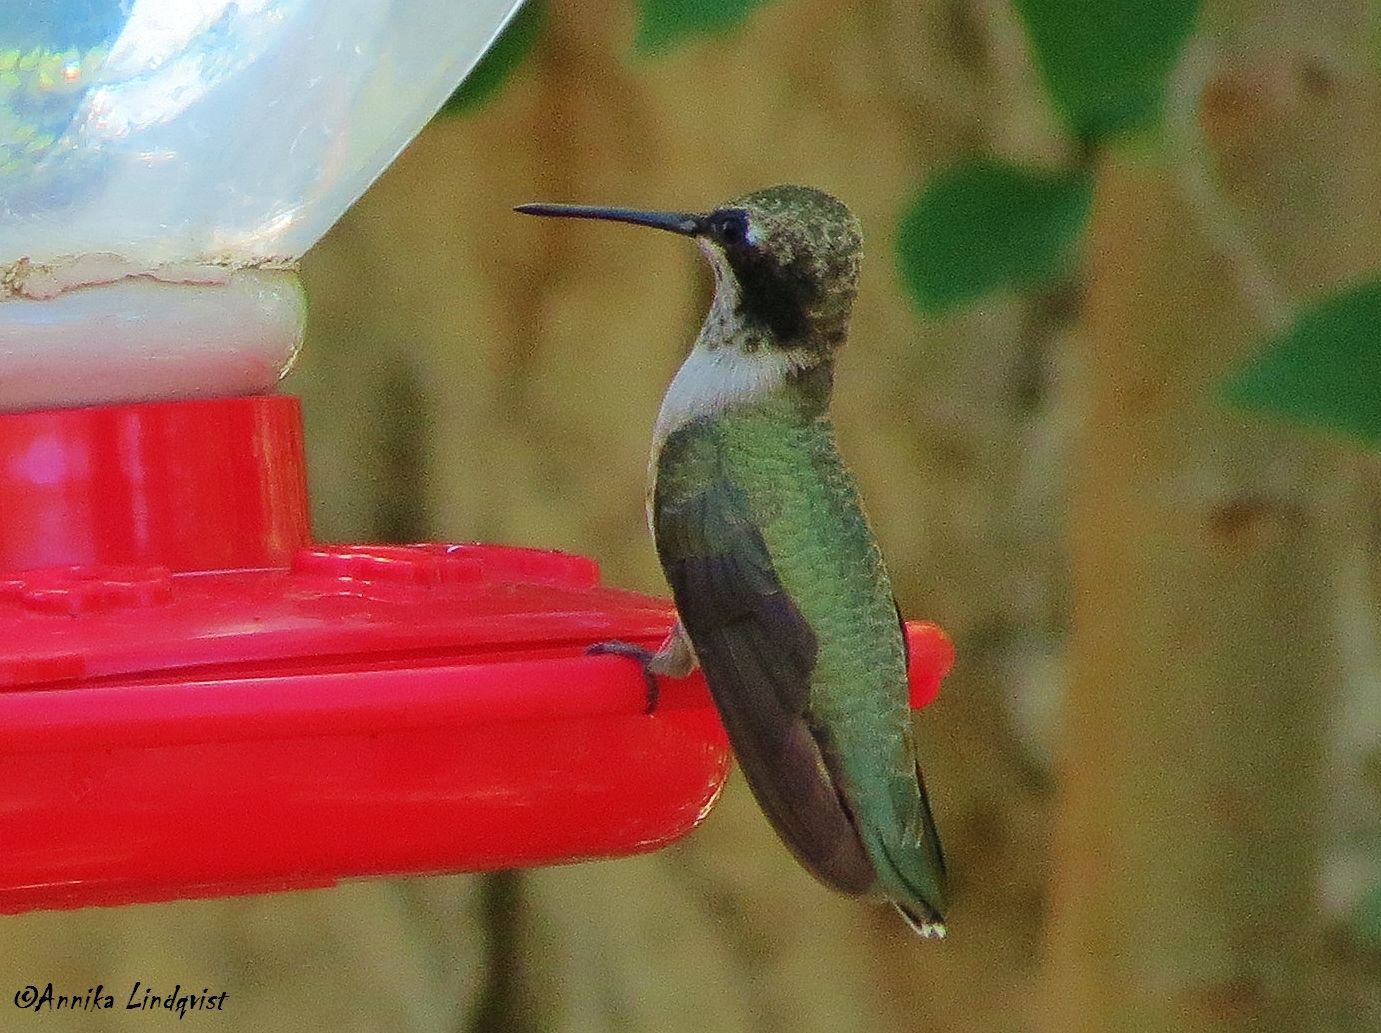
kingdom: Animalia
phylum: Chordata
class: Aves
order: Apodiformes
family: Trochilidae
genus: Archilochus
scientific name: Archilochus alexandri
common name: Black-chinned hummingbird
